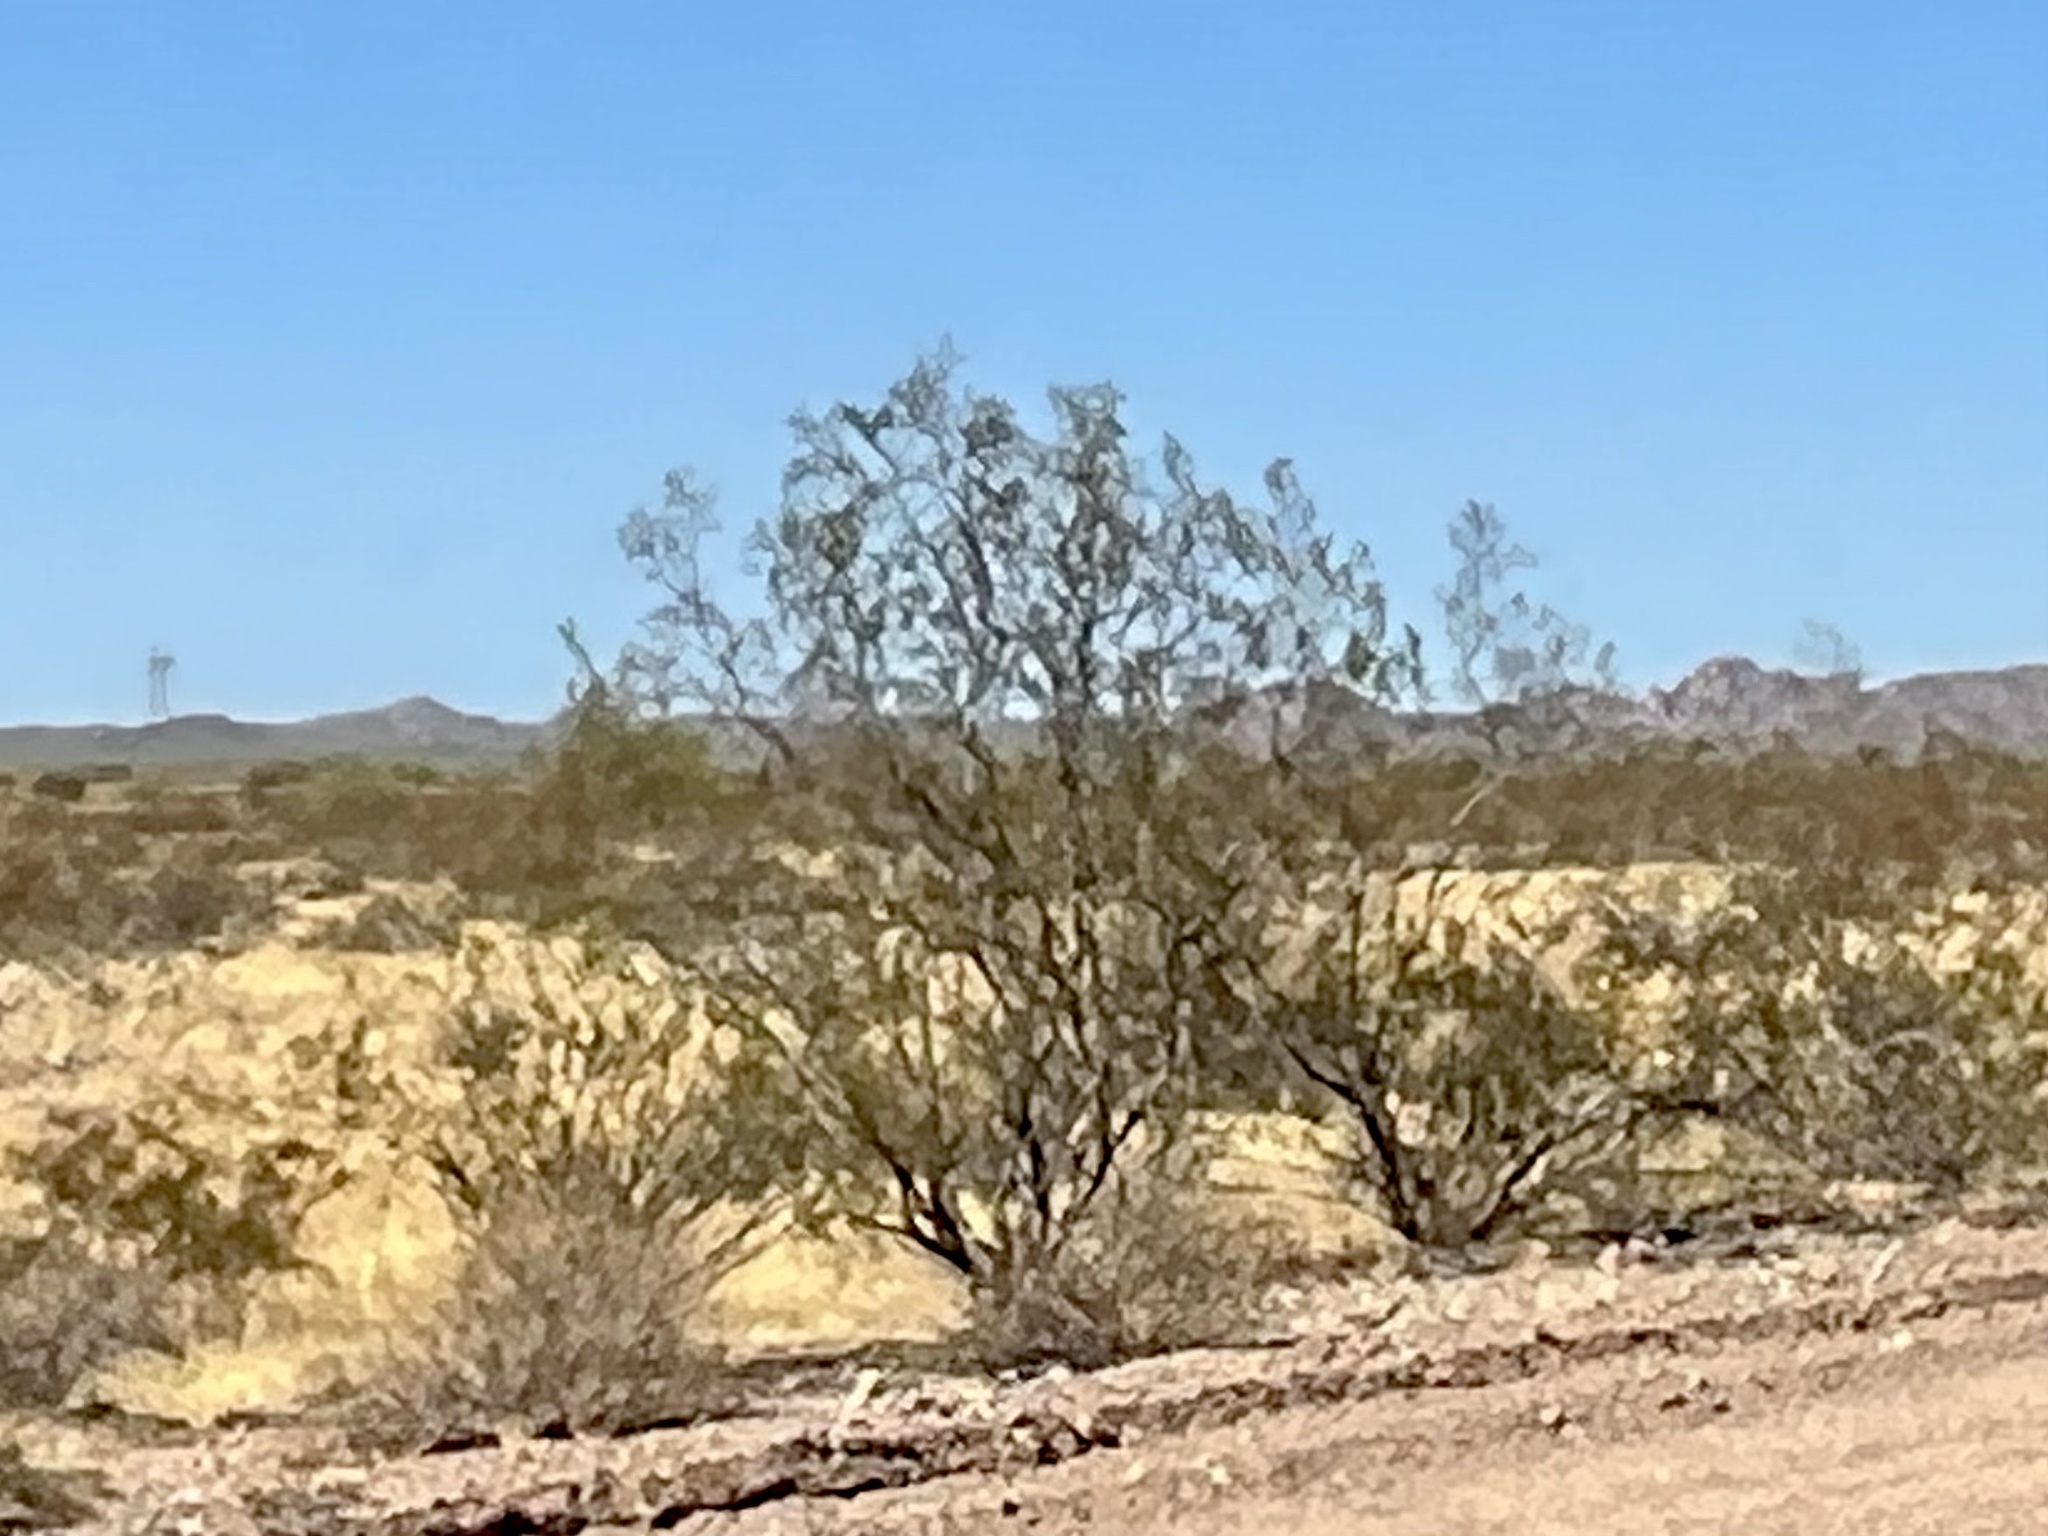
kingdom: Plantae
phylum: Tracheophyta
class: Magnoliopsida
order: Zygophyllales
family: Zygophyllaceae
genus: Larrea
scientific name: Larrea tridentata
